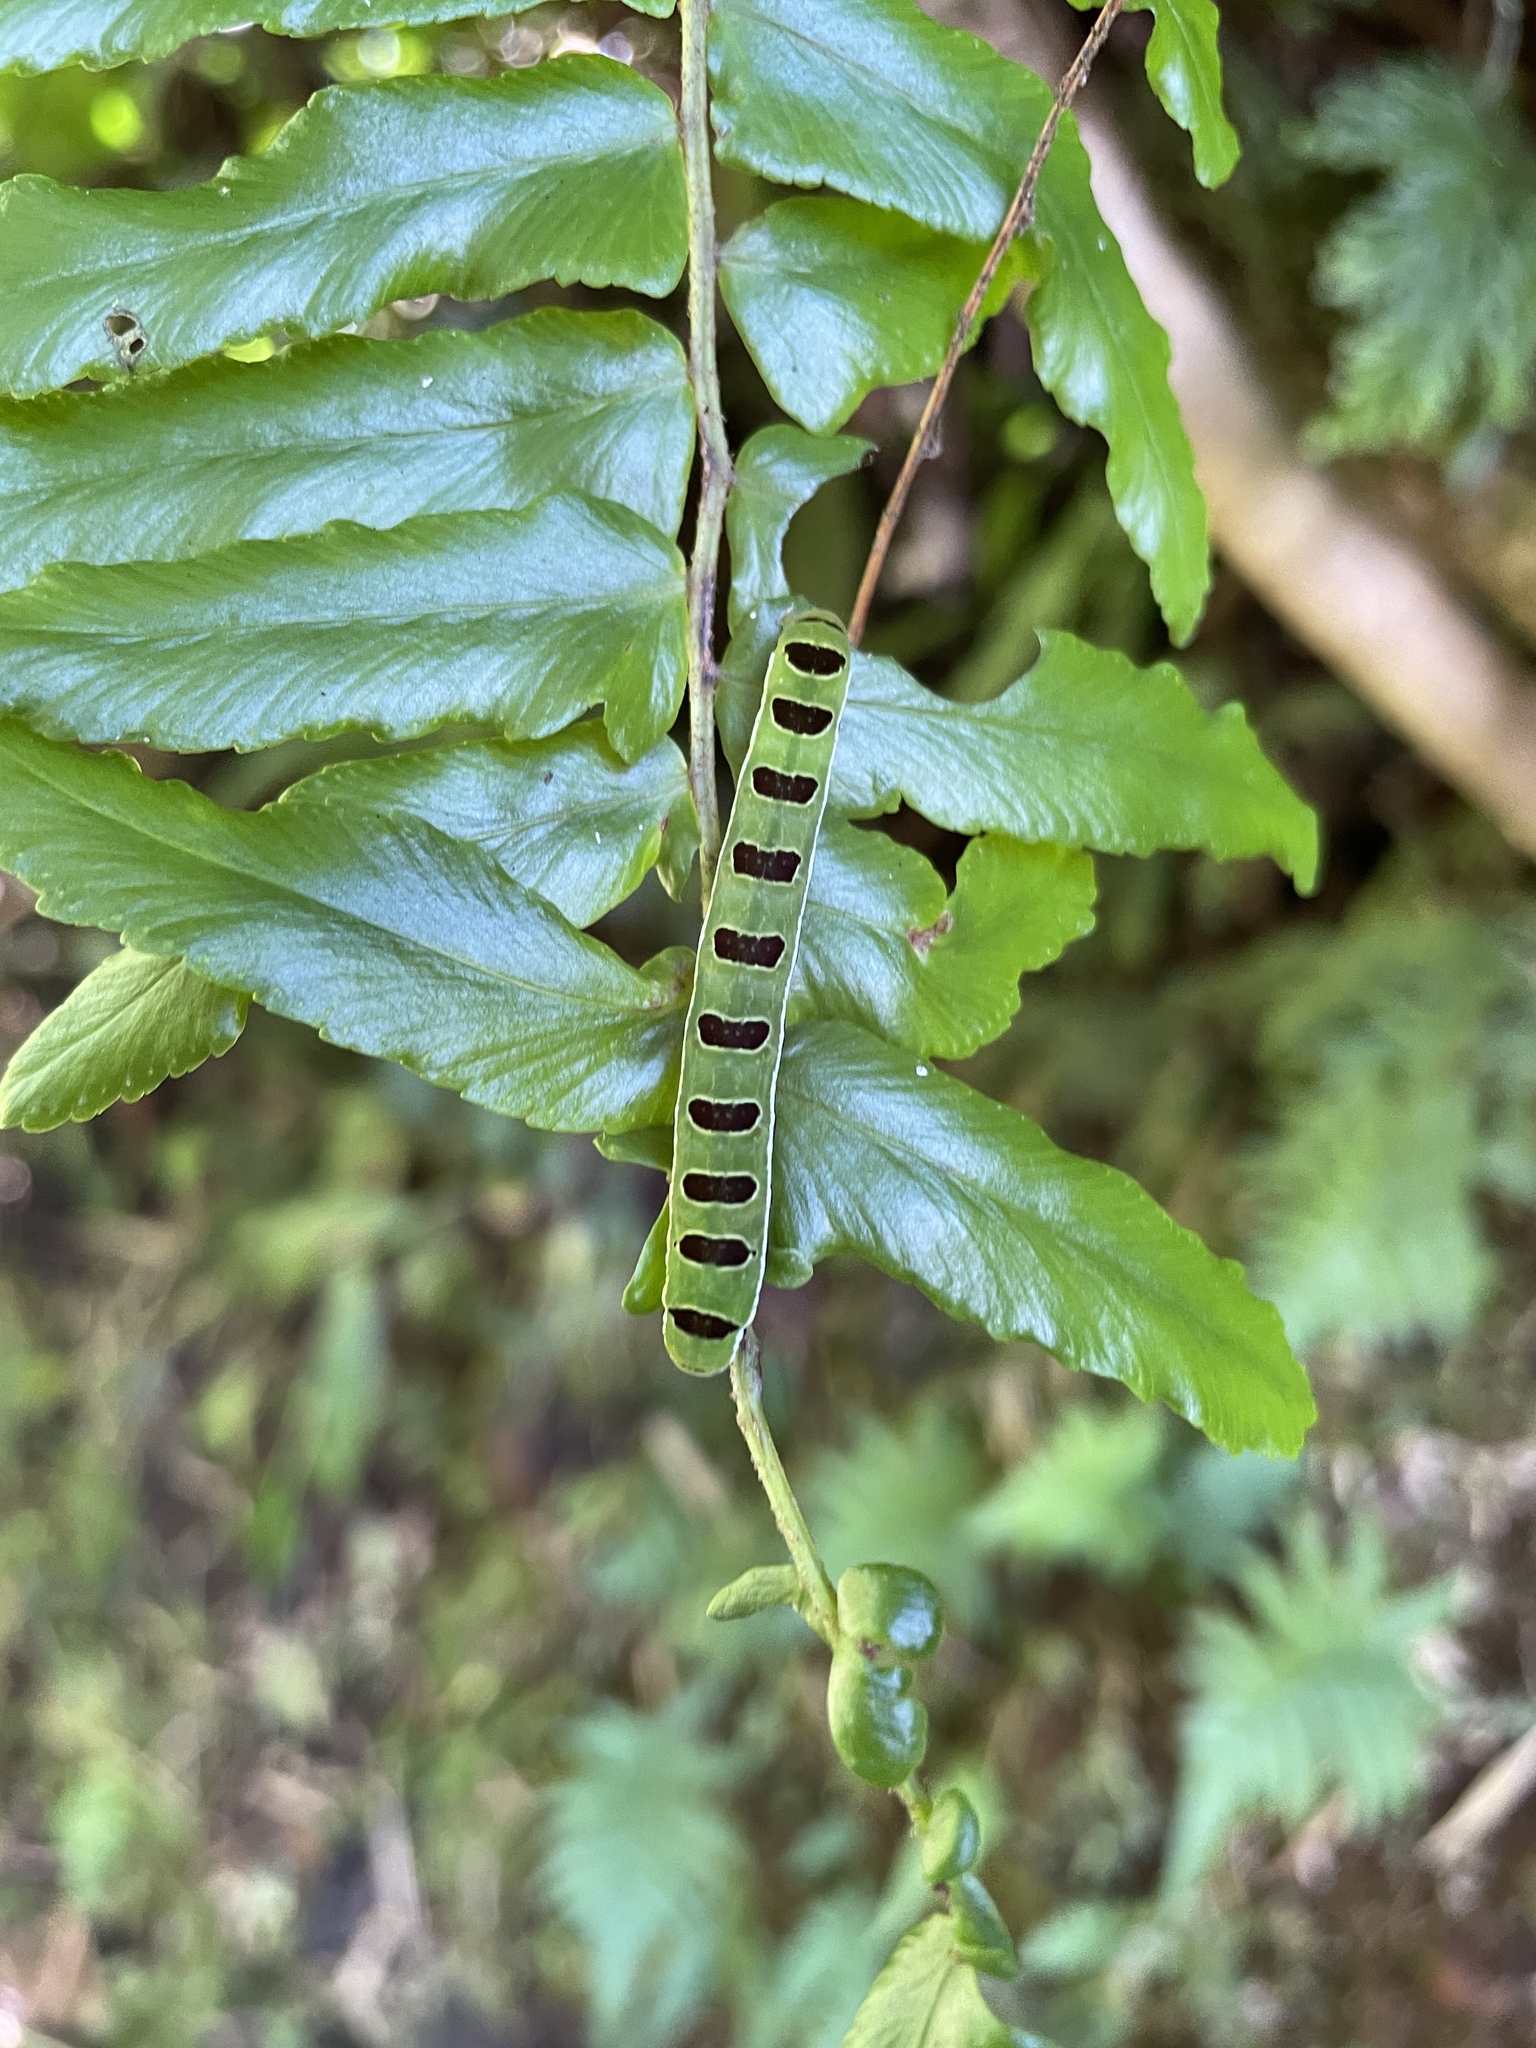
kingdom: Animalia
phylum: Arthropoda
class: Insecta
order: Lepidoptera
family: Noctuidae
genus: Callopistria
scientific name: Callopistria floridensis
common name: Florida fern moth
